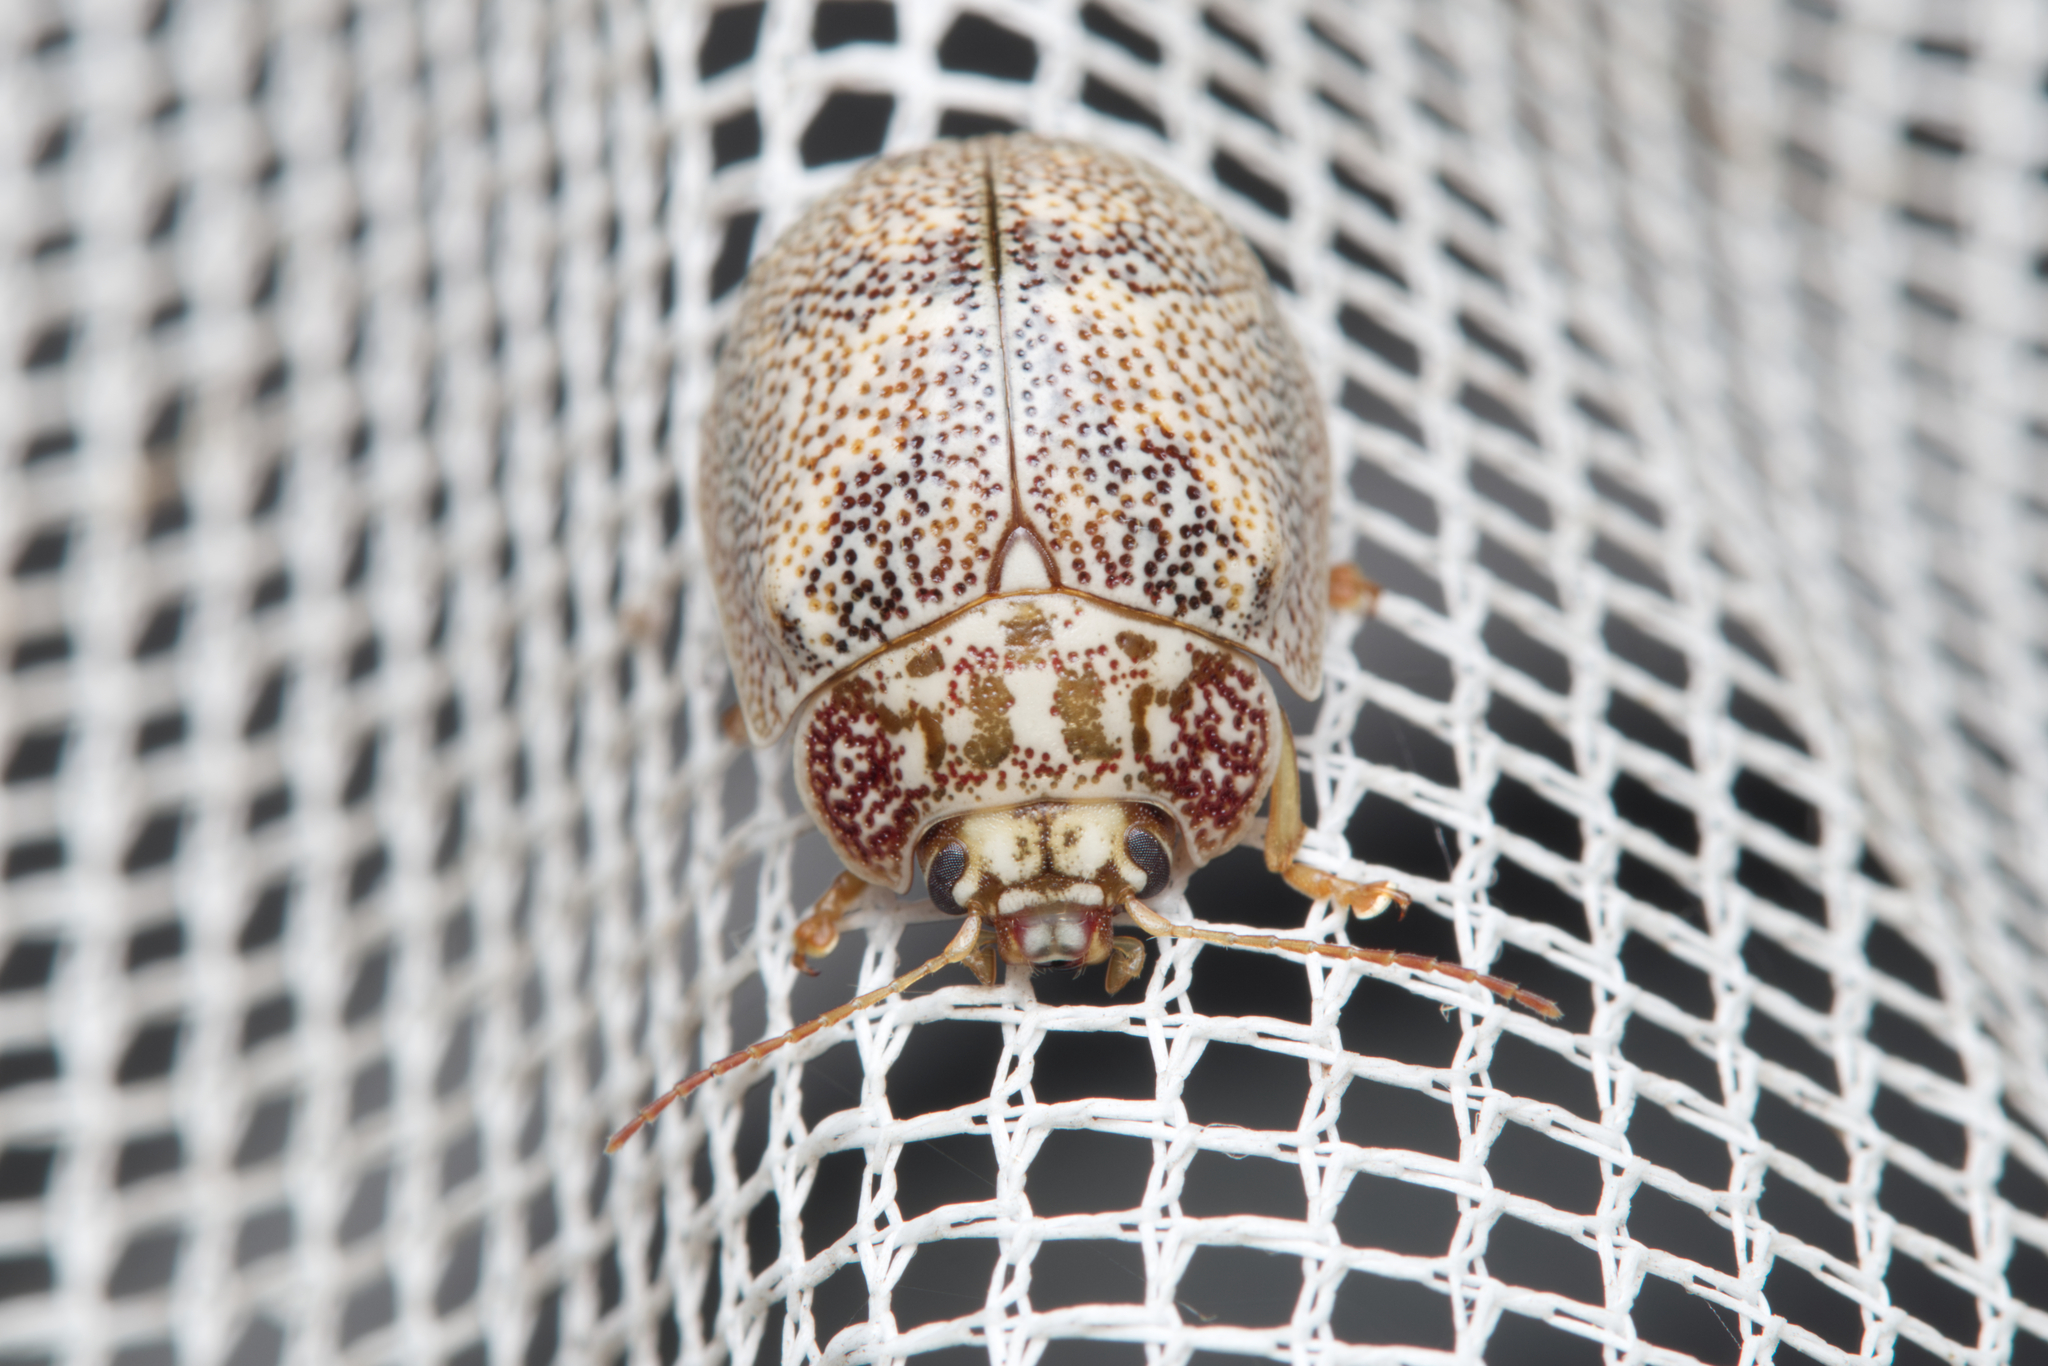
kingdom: Animalia
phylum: Arthropoda
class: Insecta
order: Coleoptera
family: Chrysomelidae
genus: Paropsis
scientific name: Paropsis
